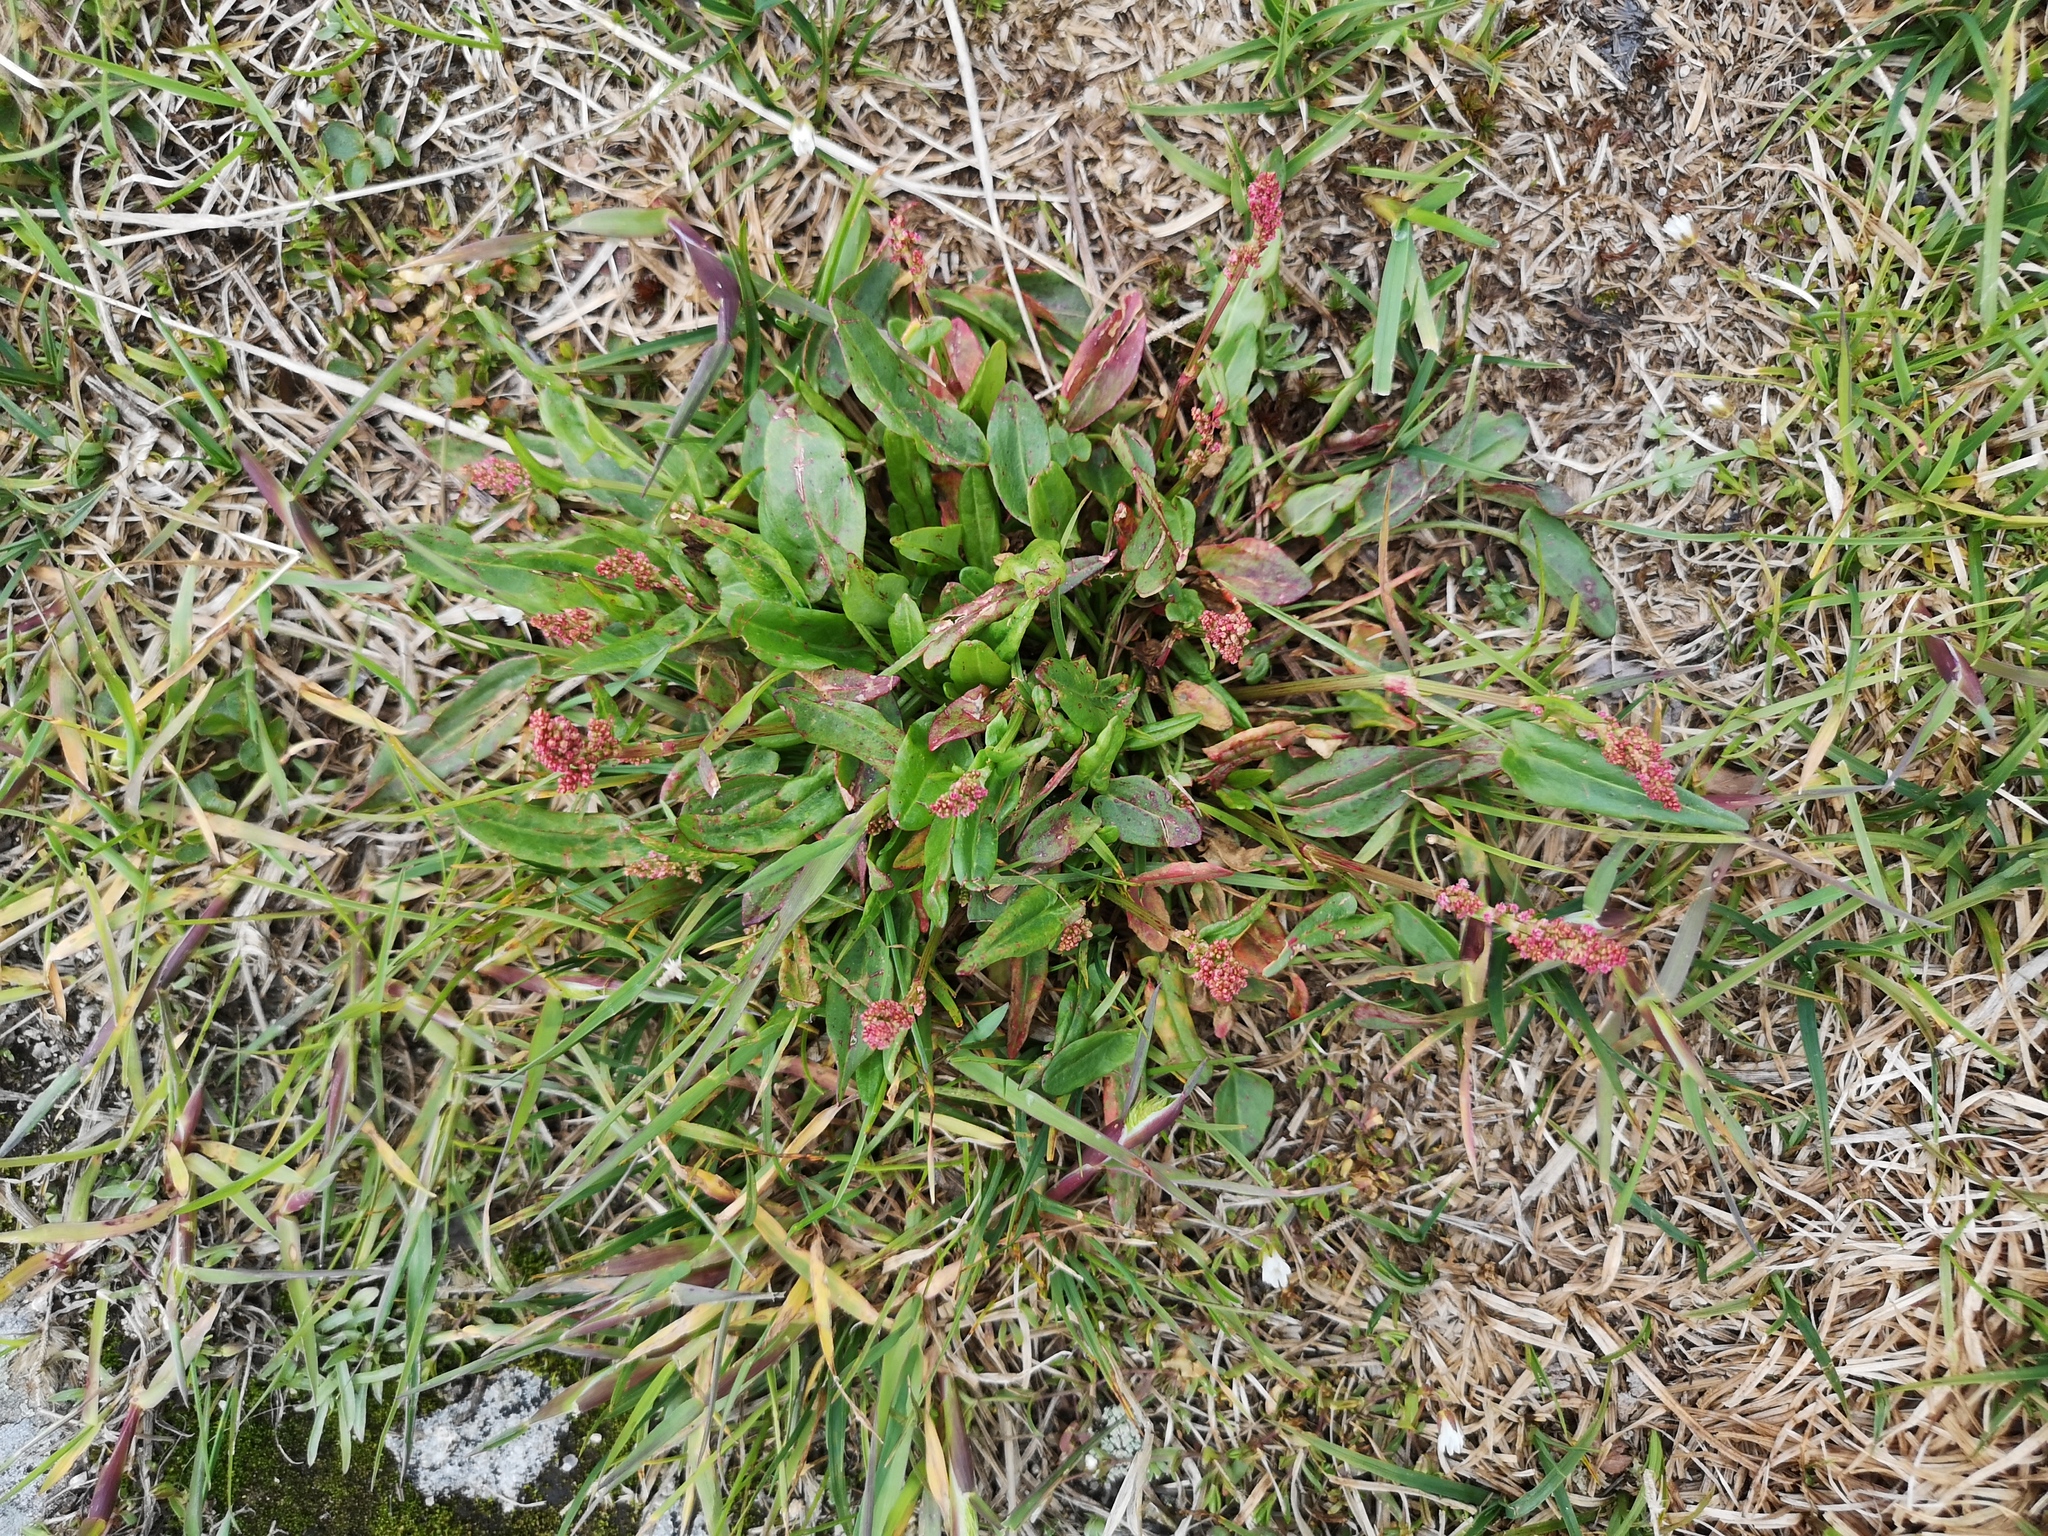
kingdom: Plantae
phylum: Tracheophyta
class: Magnoliopsida
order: Caryophyllales
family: Polygonaceae
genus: Rumex
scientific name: Rumex acetosa
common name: Garden sorrel
